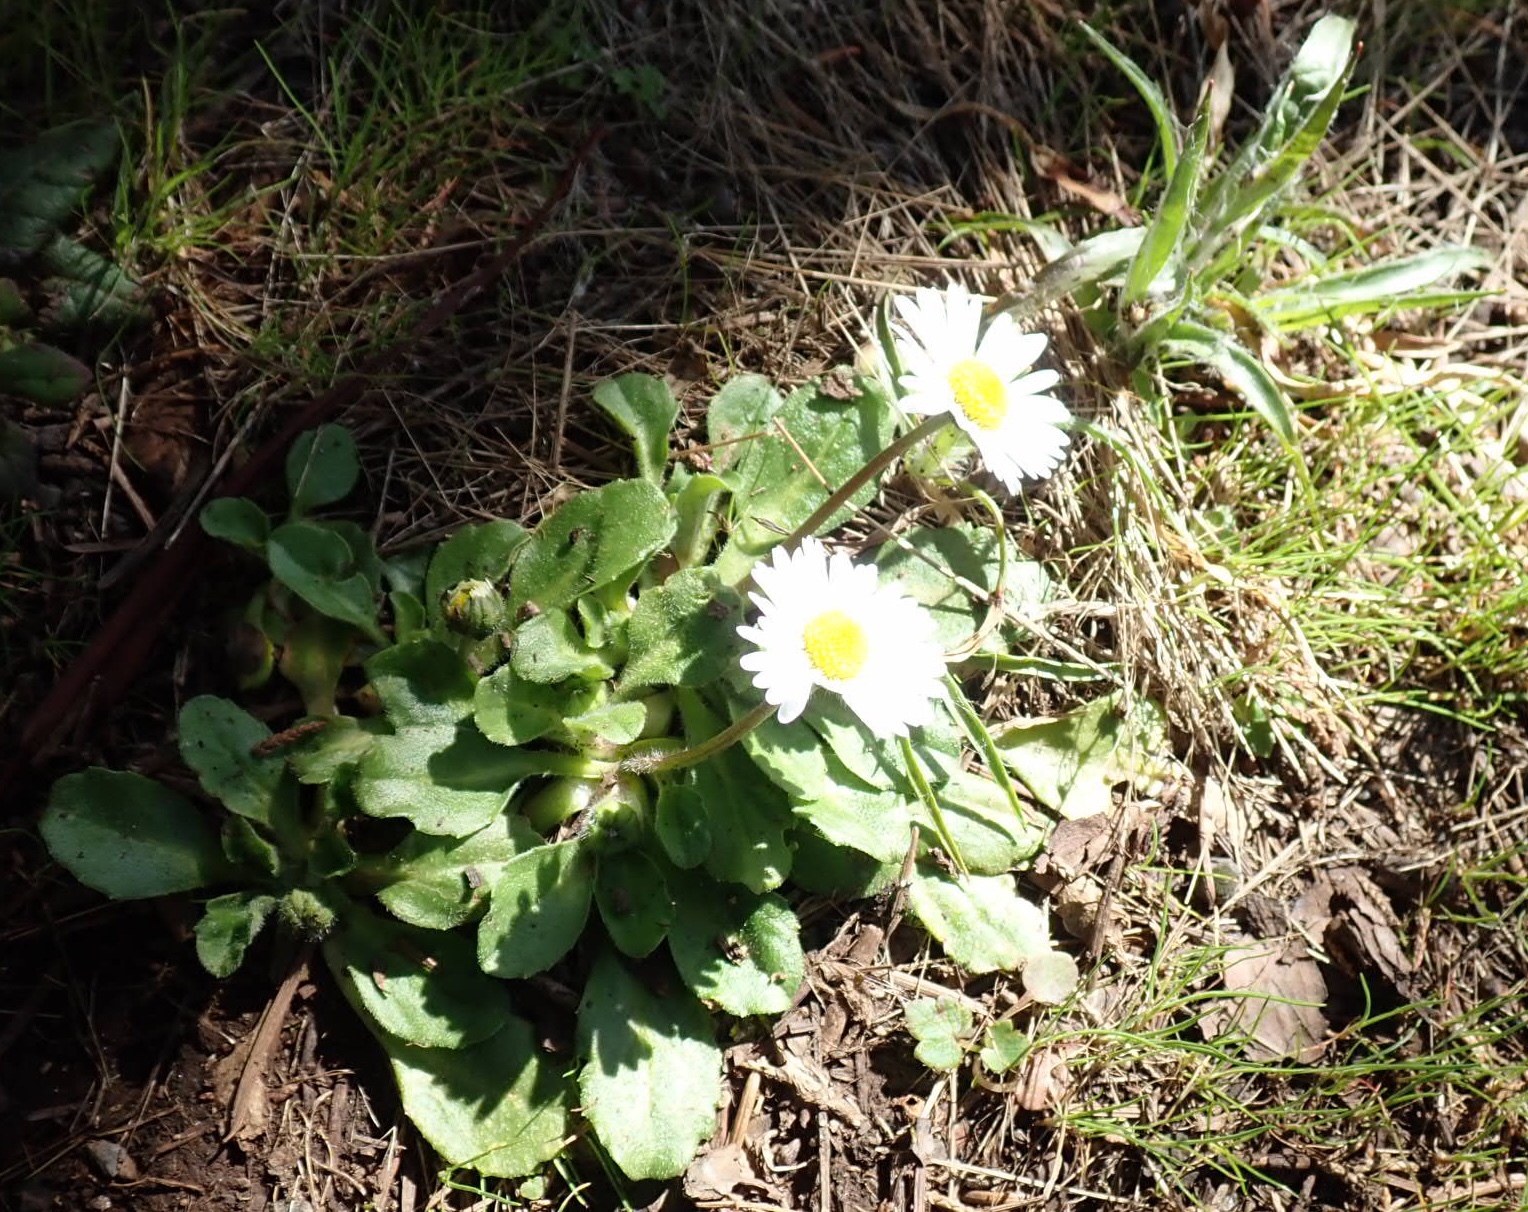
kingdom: Plantae
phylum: Tracheophyta
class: Magnoliopsida
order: Asterales
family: Asteraceae
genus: Bellis
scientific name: Bellis perennis
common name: Lawndaisy
